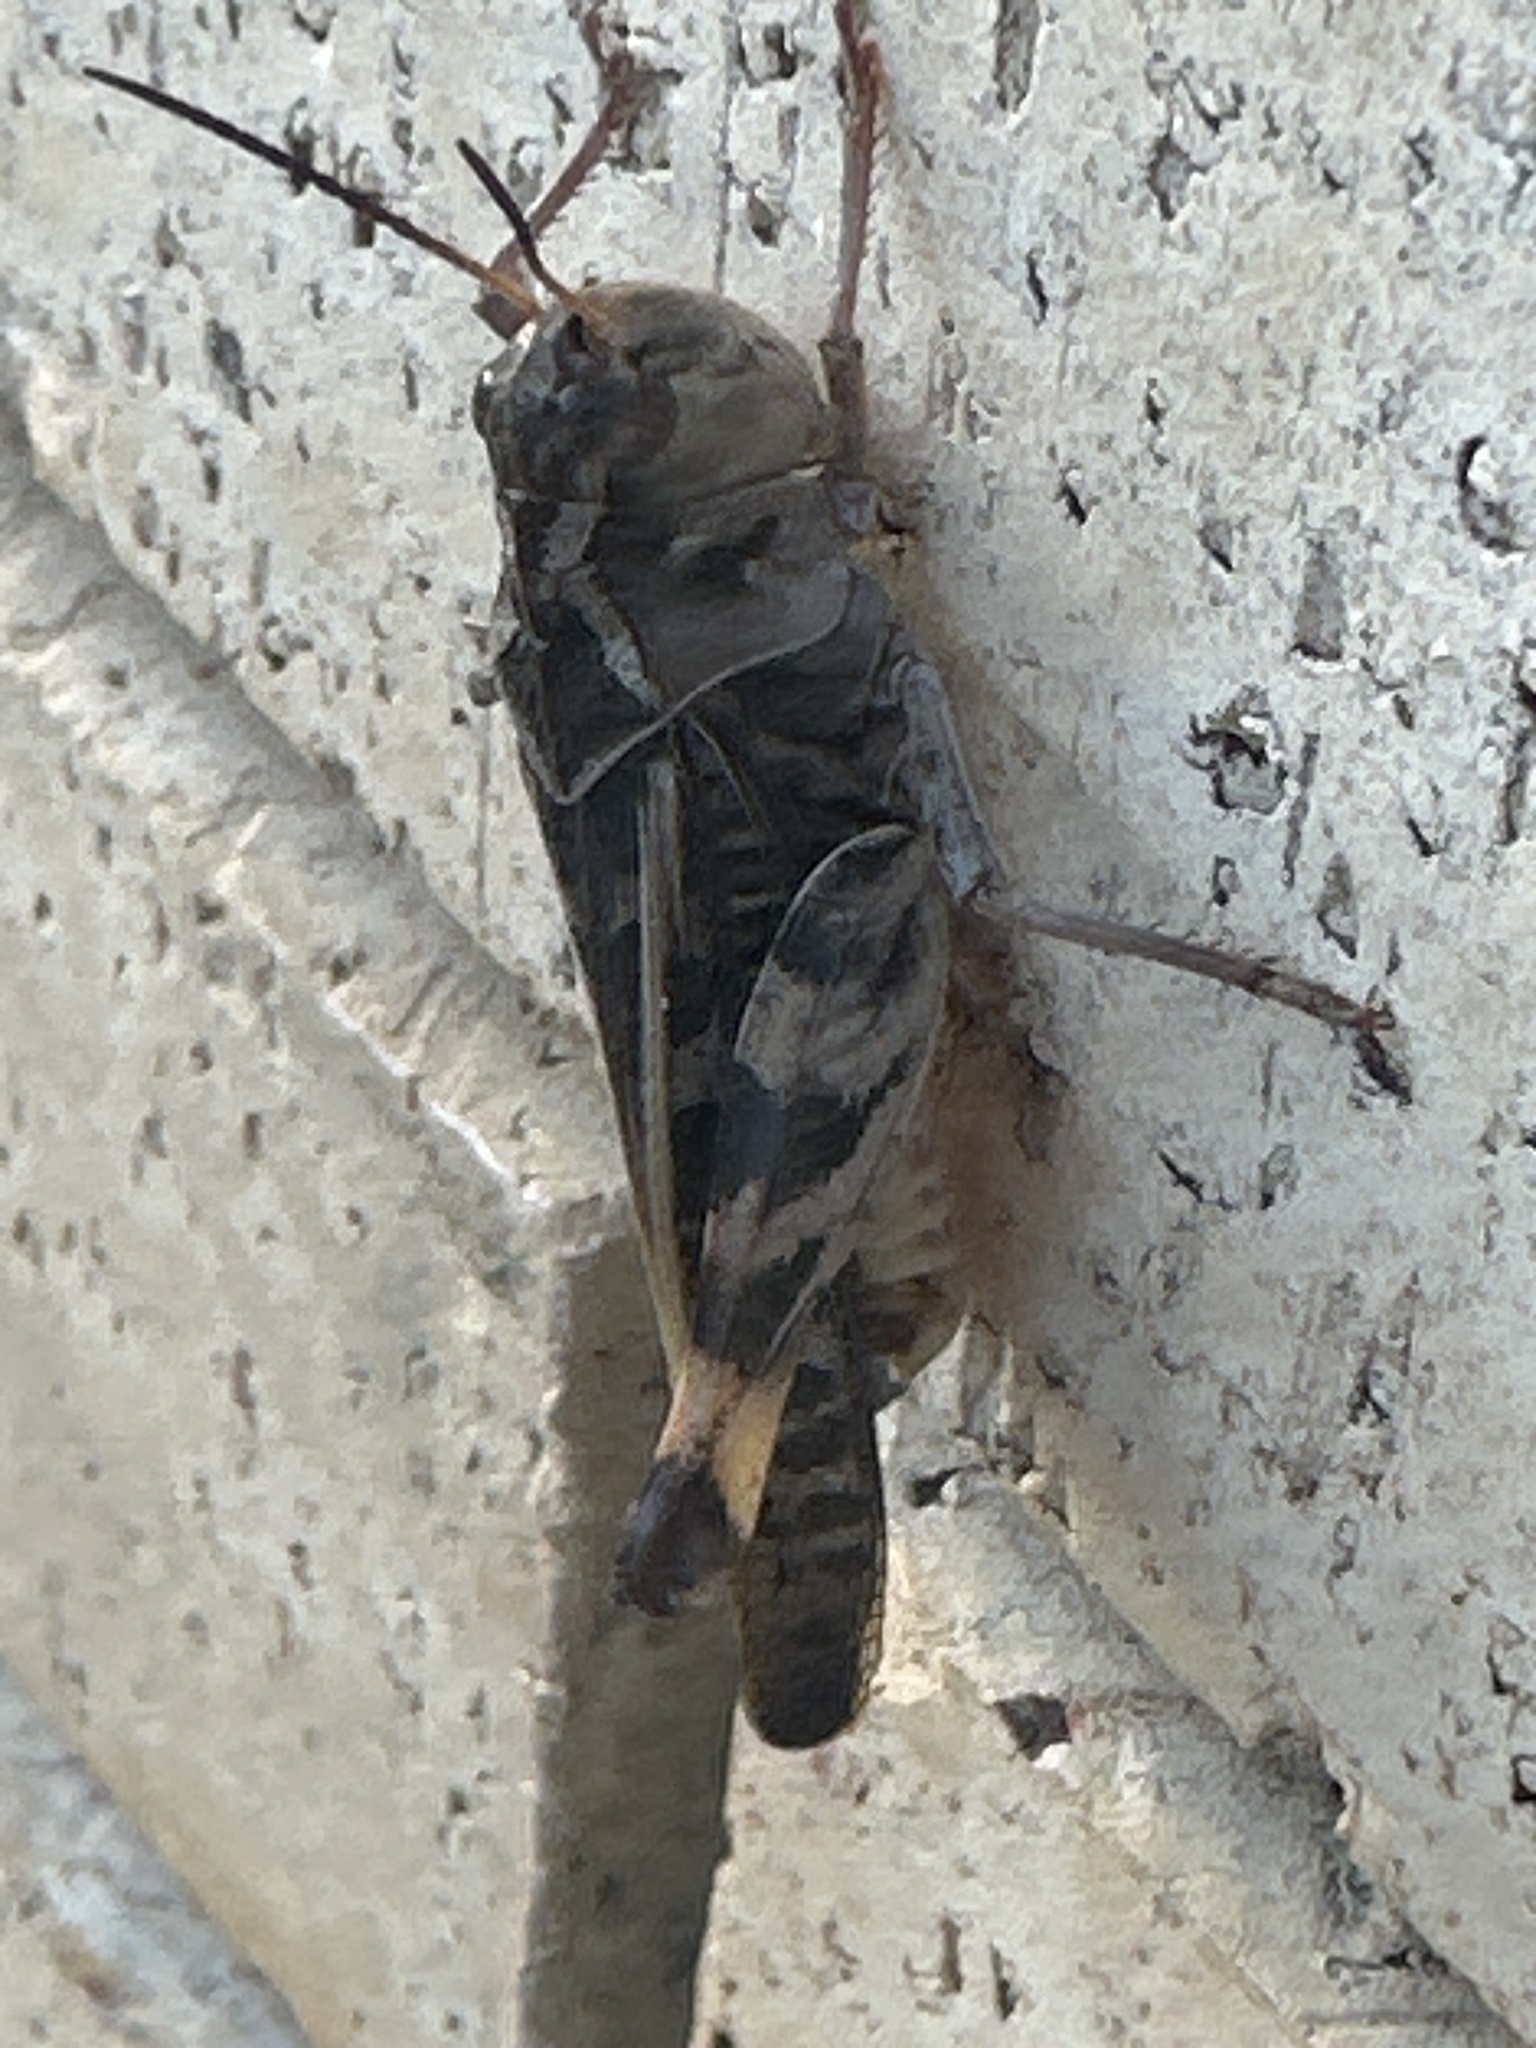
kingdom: Animalia
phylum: Arthropoda
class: Insecta
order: Orthoptera
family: Acrididae
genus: Hippiscus
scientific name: Hippiscus ocelote
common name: Wrinkled grasshopper
